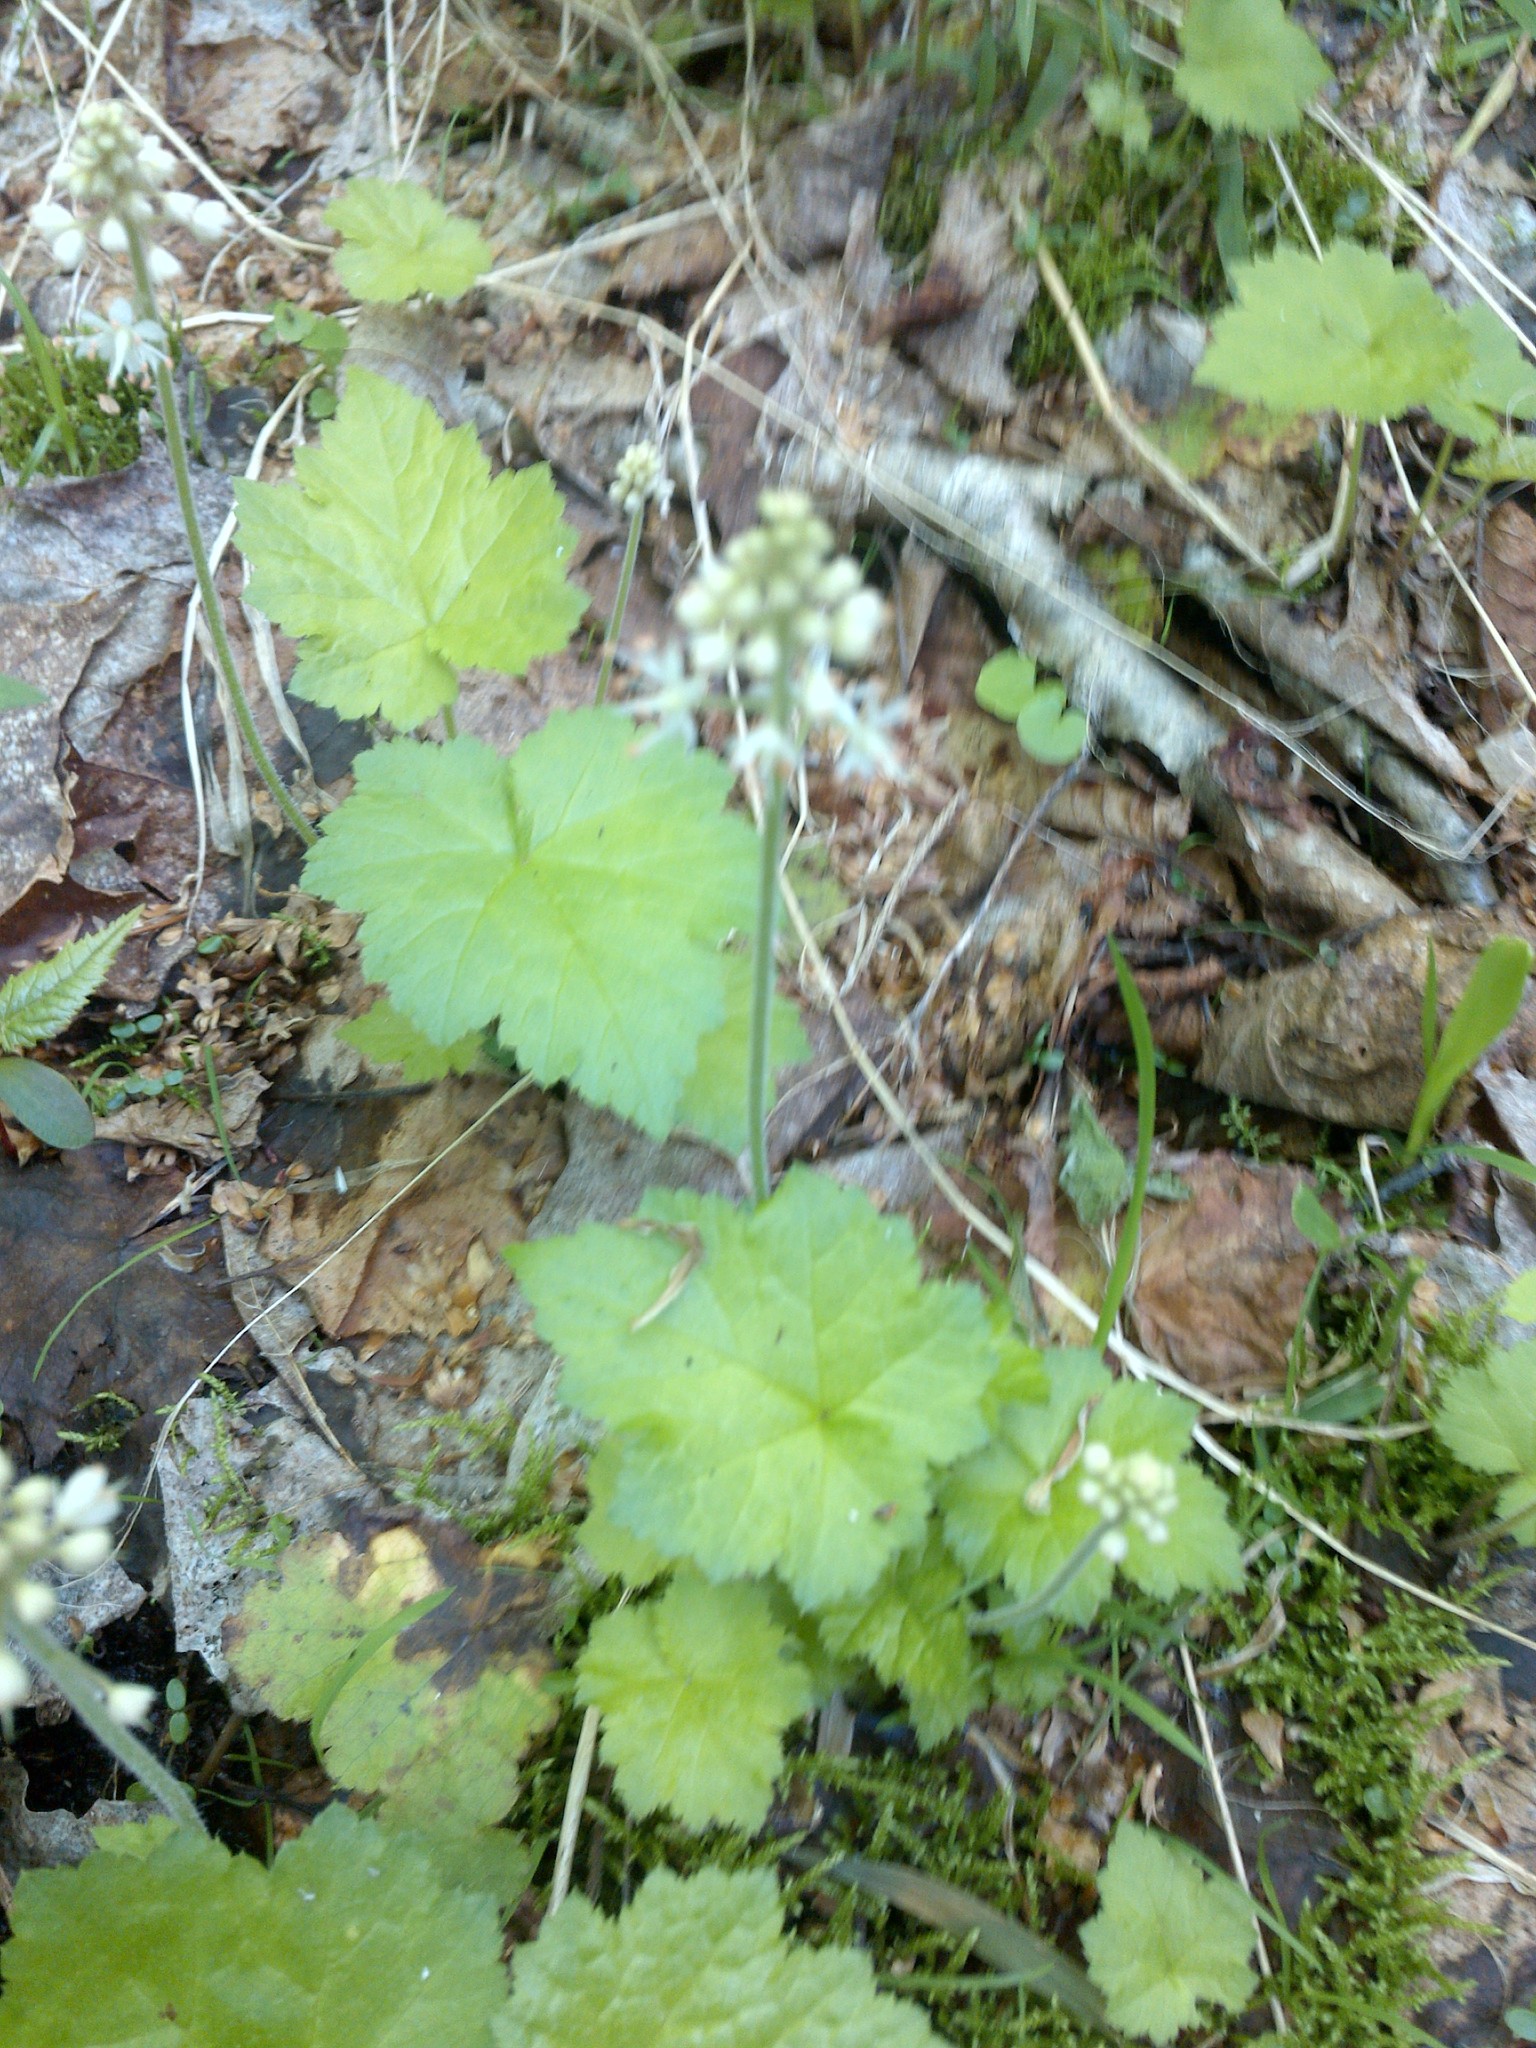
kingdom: Plantae
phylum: Tracheophyta
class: Magnoliopsida
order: Saxifragales
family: Saxifragaceae
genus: Tiarella
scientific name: Tiarella stolonifera
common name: Stoloniferous foamflower
